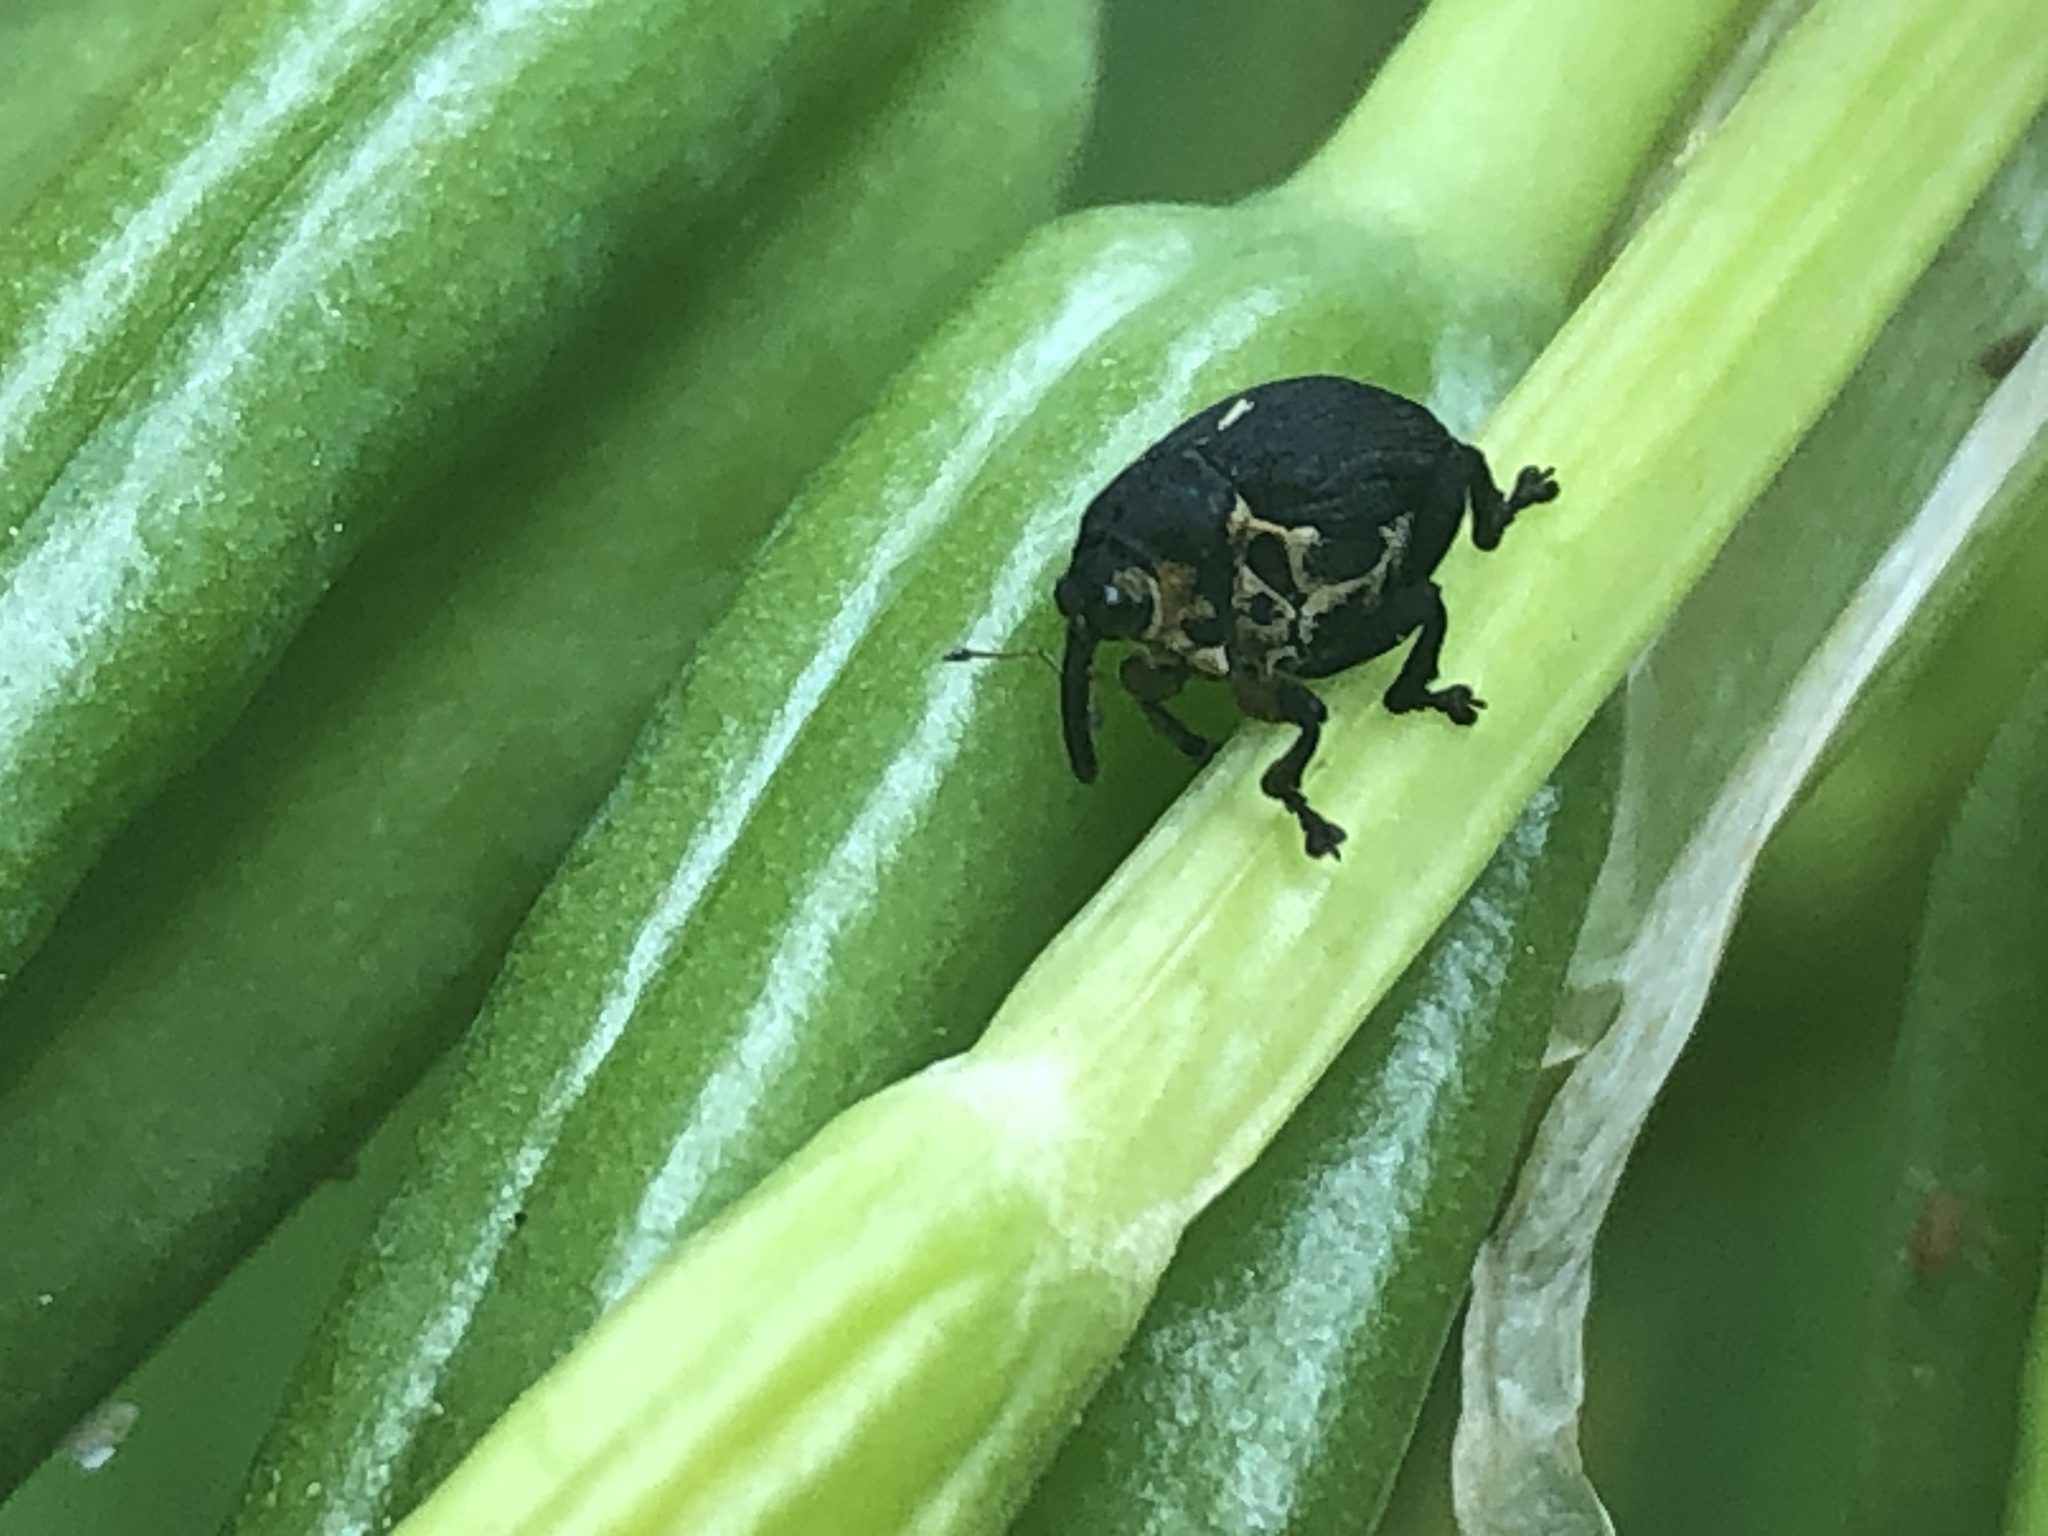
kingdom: Animalia
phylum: Arthropoda
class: Insecta
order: Coleoptera
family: Curculionidae
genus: Mononychus
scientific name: Mononychus punctumalbum
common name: Iris weevil
